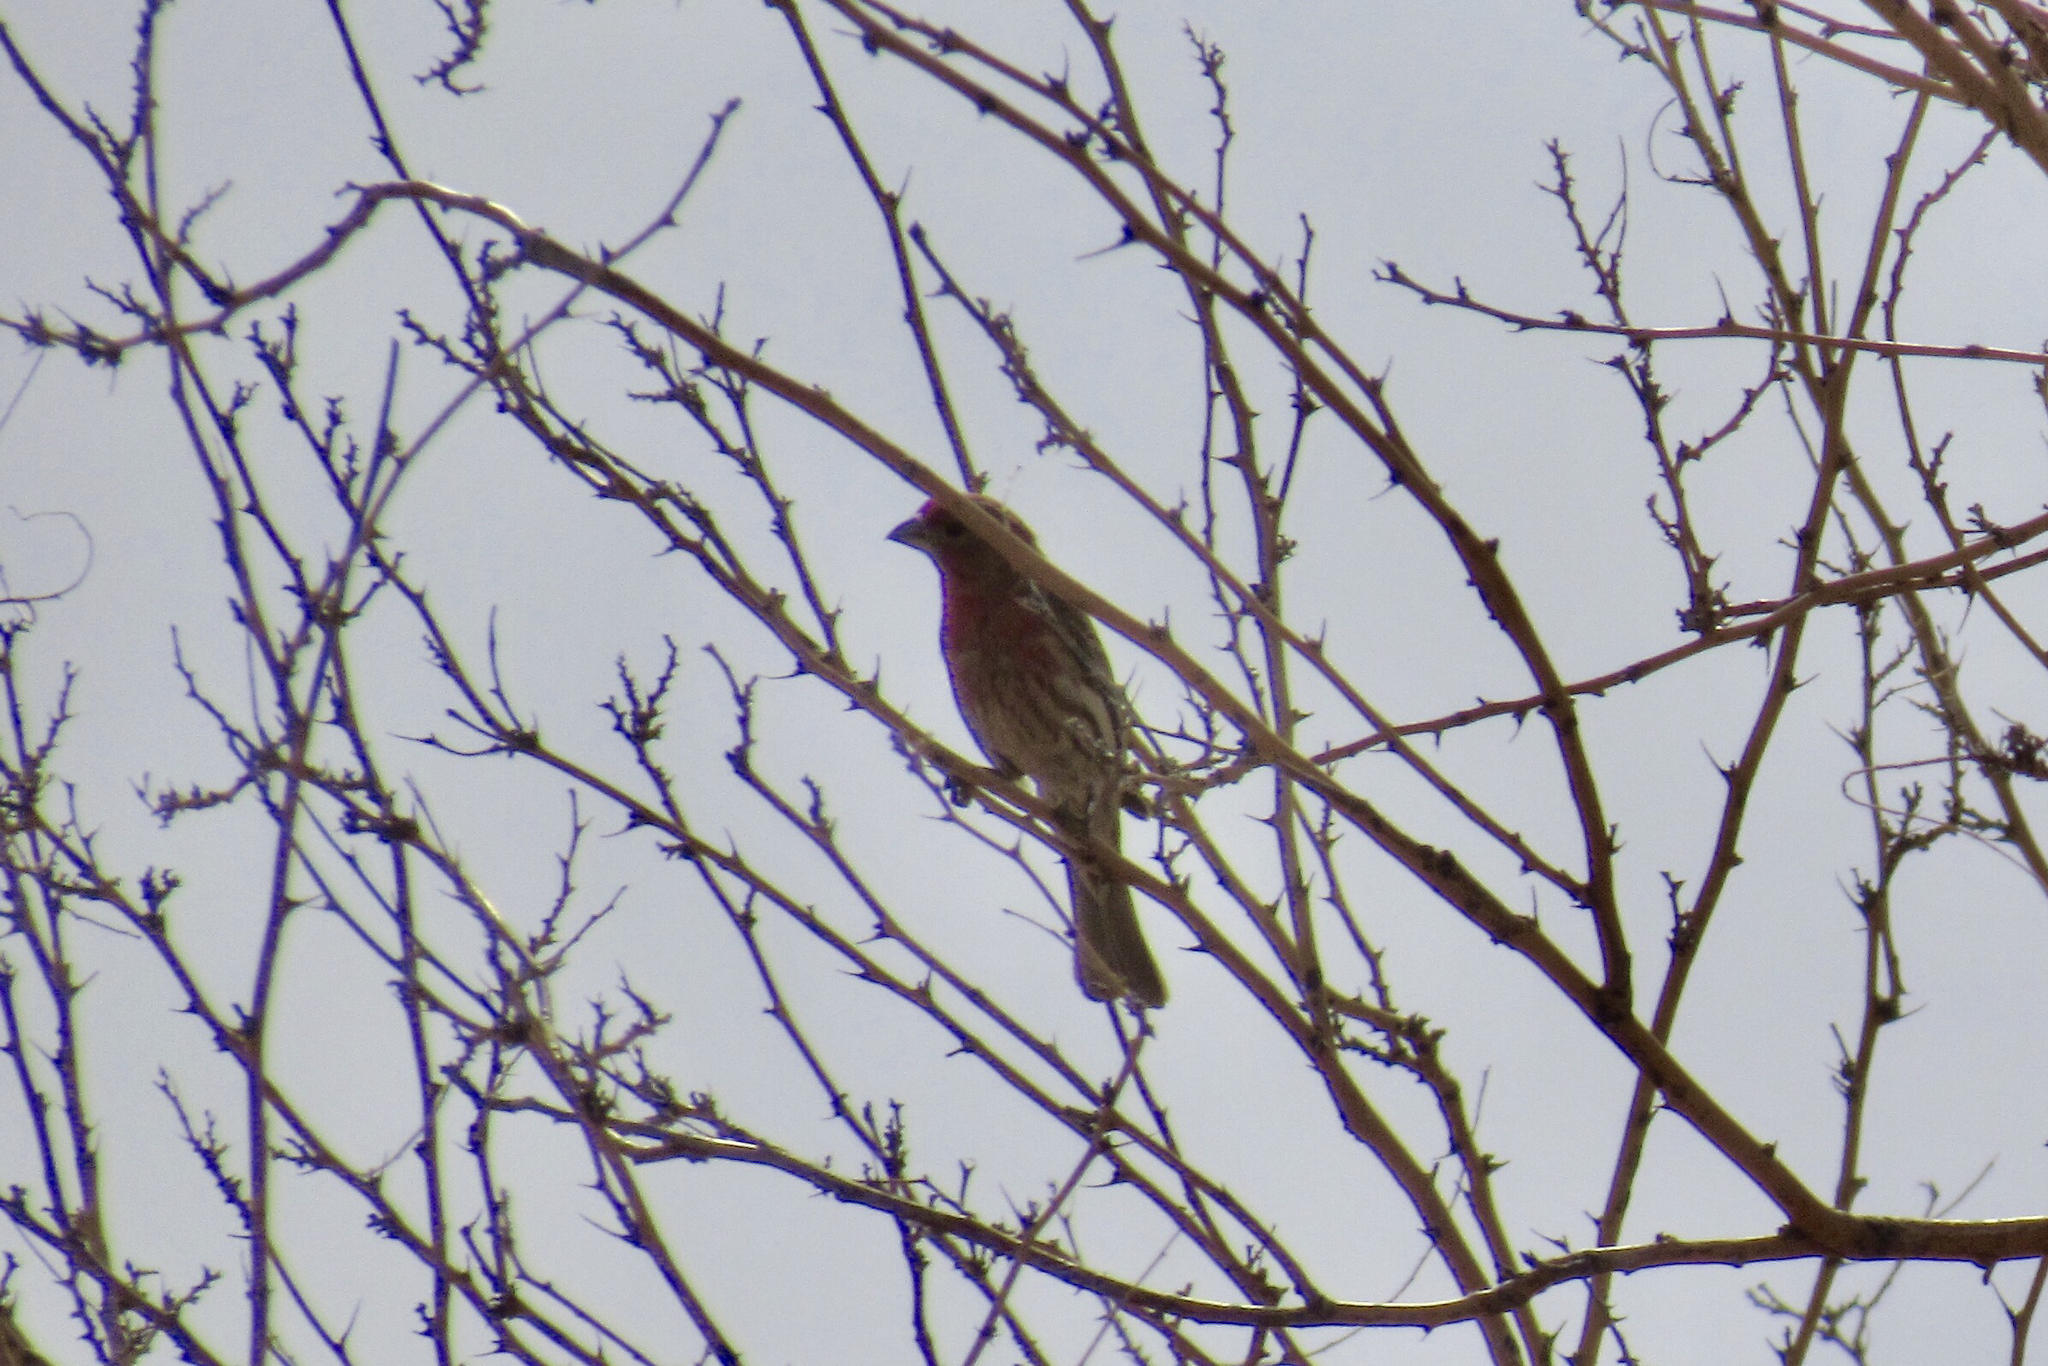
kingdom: Animalia
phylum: Chordata
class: Aves
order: Passeriformes
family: Fringillidae
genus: Haemorhous
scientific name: Haemorhous mexicanus
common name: House finch
